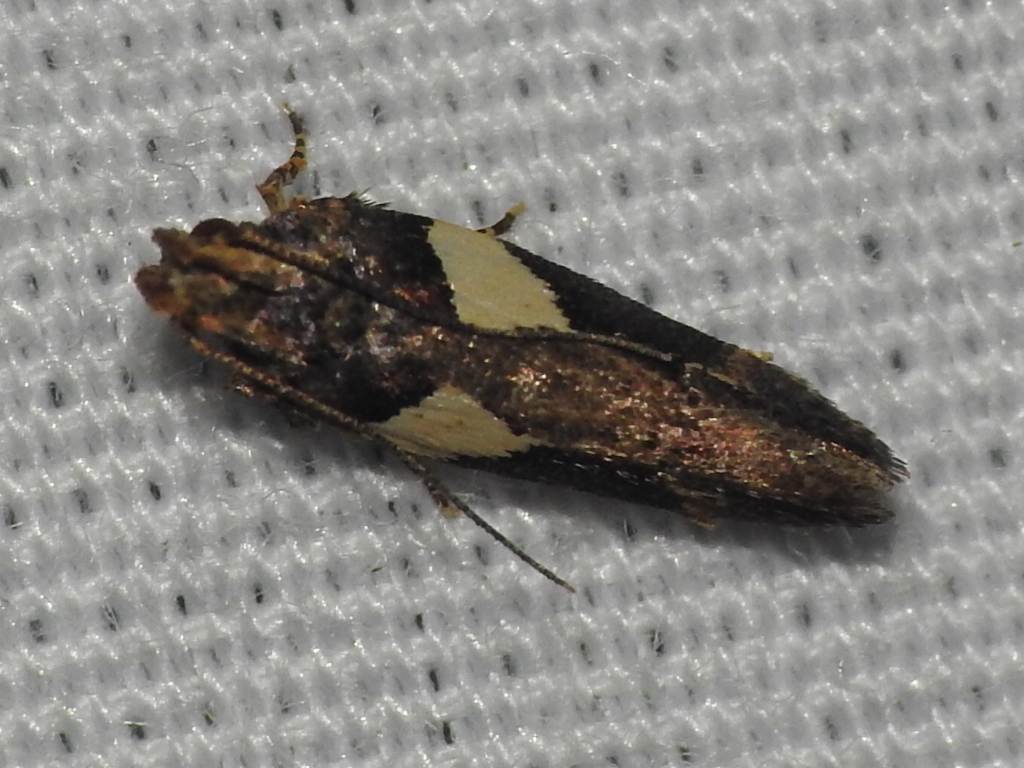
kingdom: Animalia
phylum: Arthropoda
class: Insecta
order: Lepidoptera
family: Gelechiidae
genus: Friseria
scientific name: Friseria acaciella
